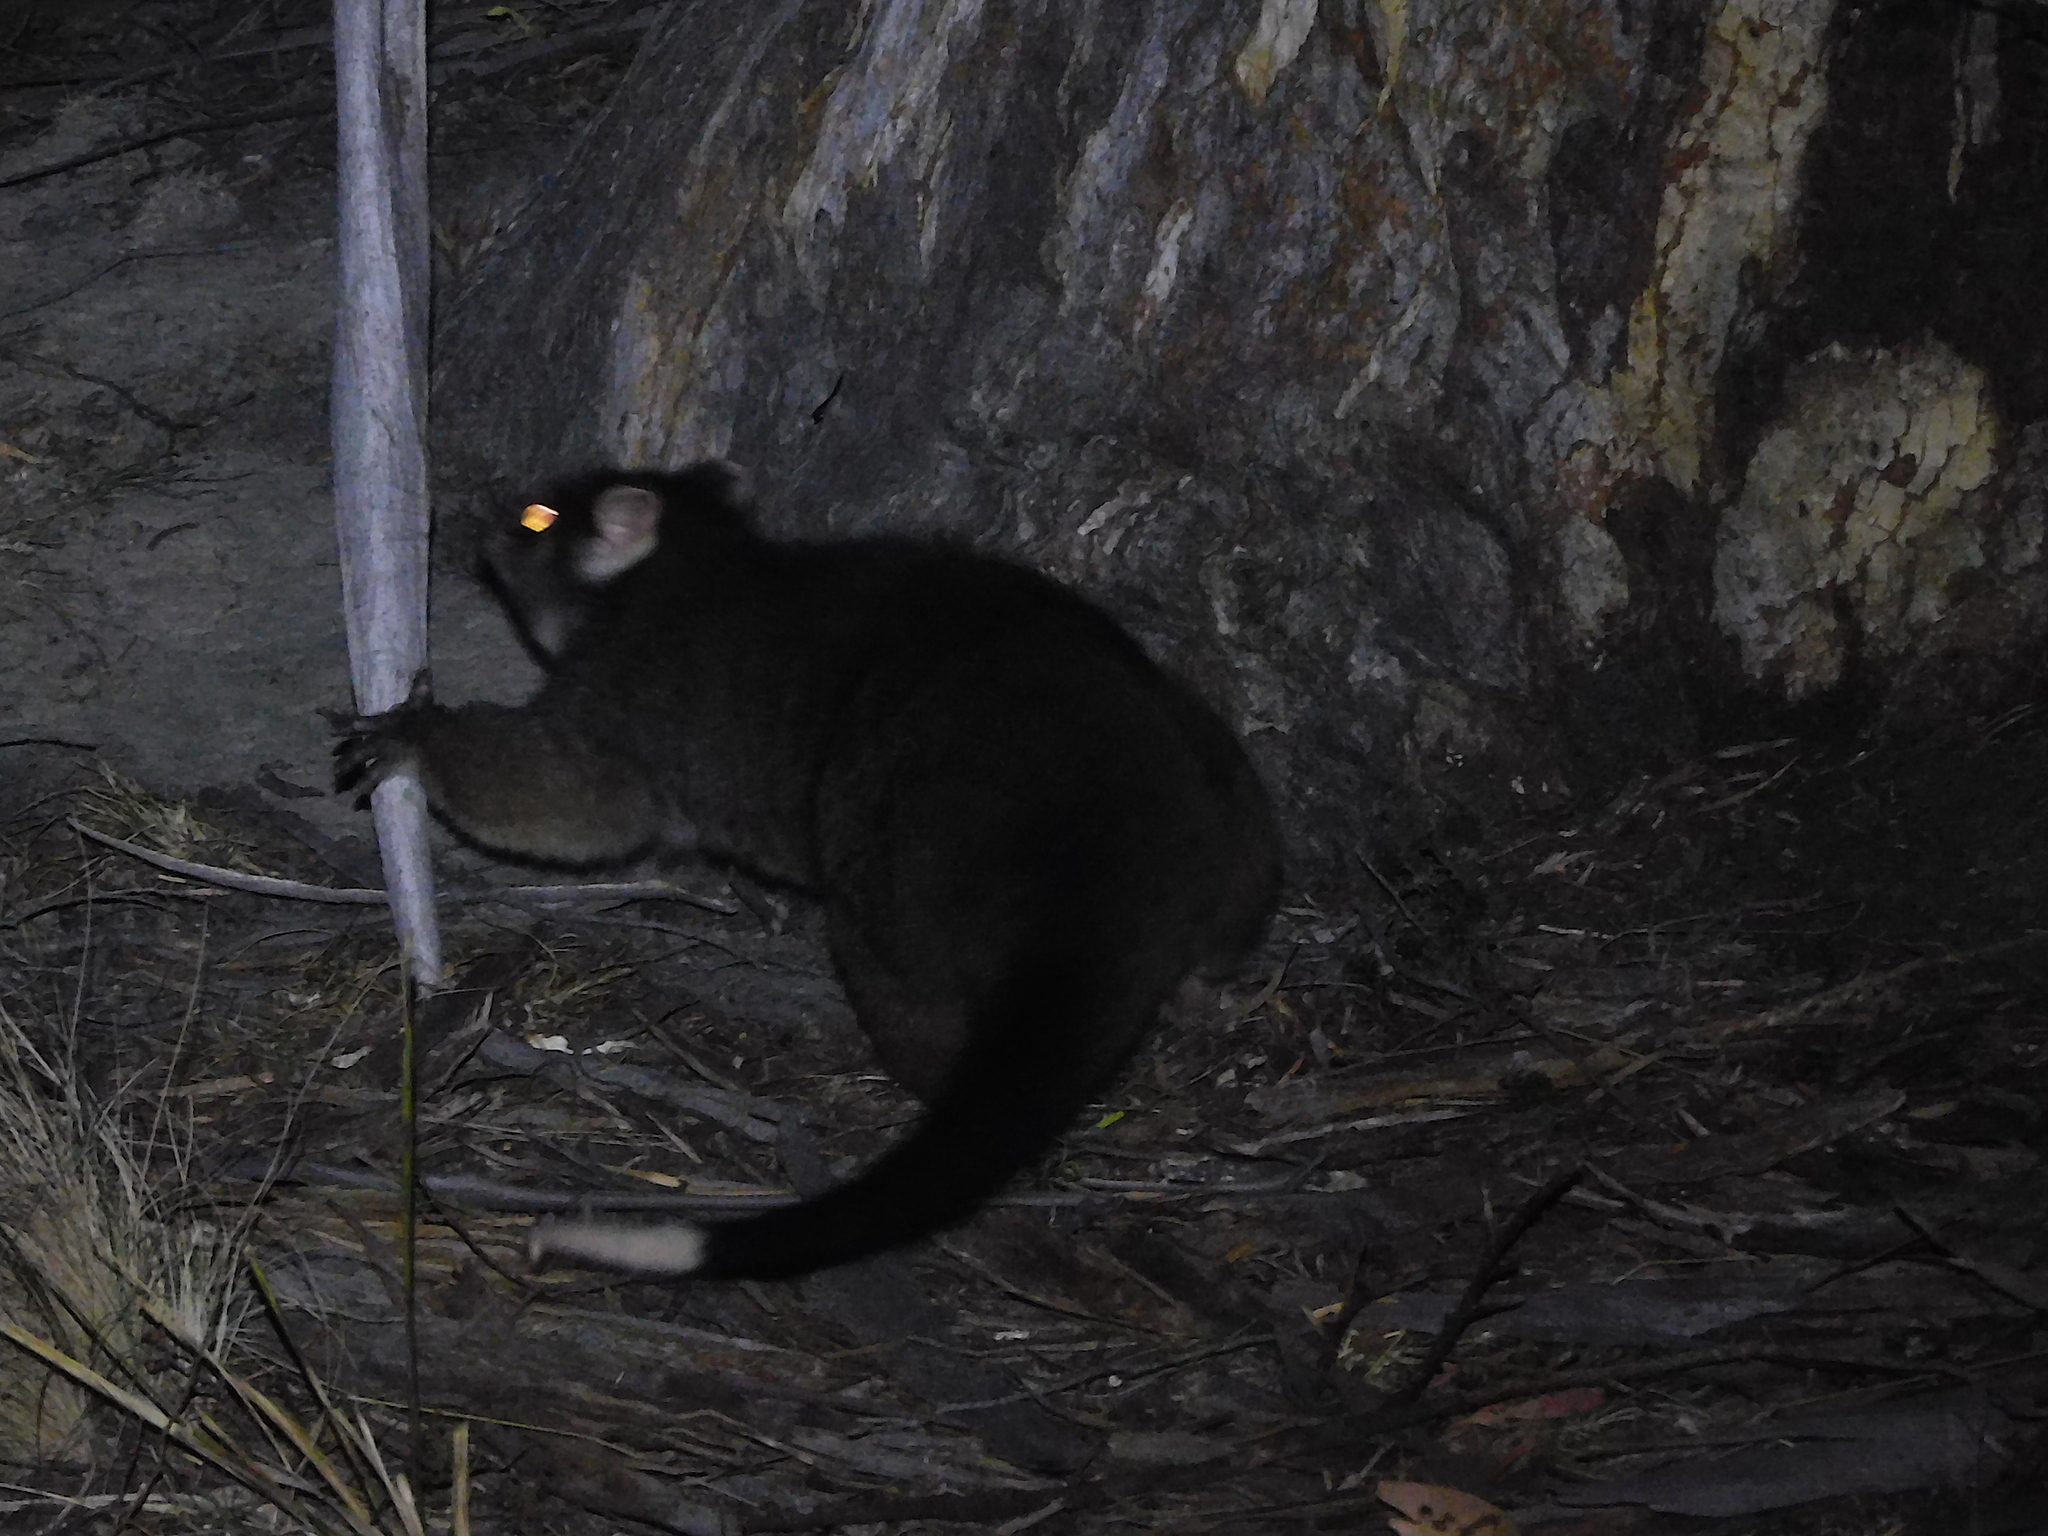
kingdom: Animalia
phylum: Chordata
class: Mammalia
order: Diprotodontia
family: Pseudocheiridae
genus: Pseudocheirus
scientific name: Pseudocheirus peregrinus
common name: Common ringtail possum
